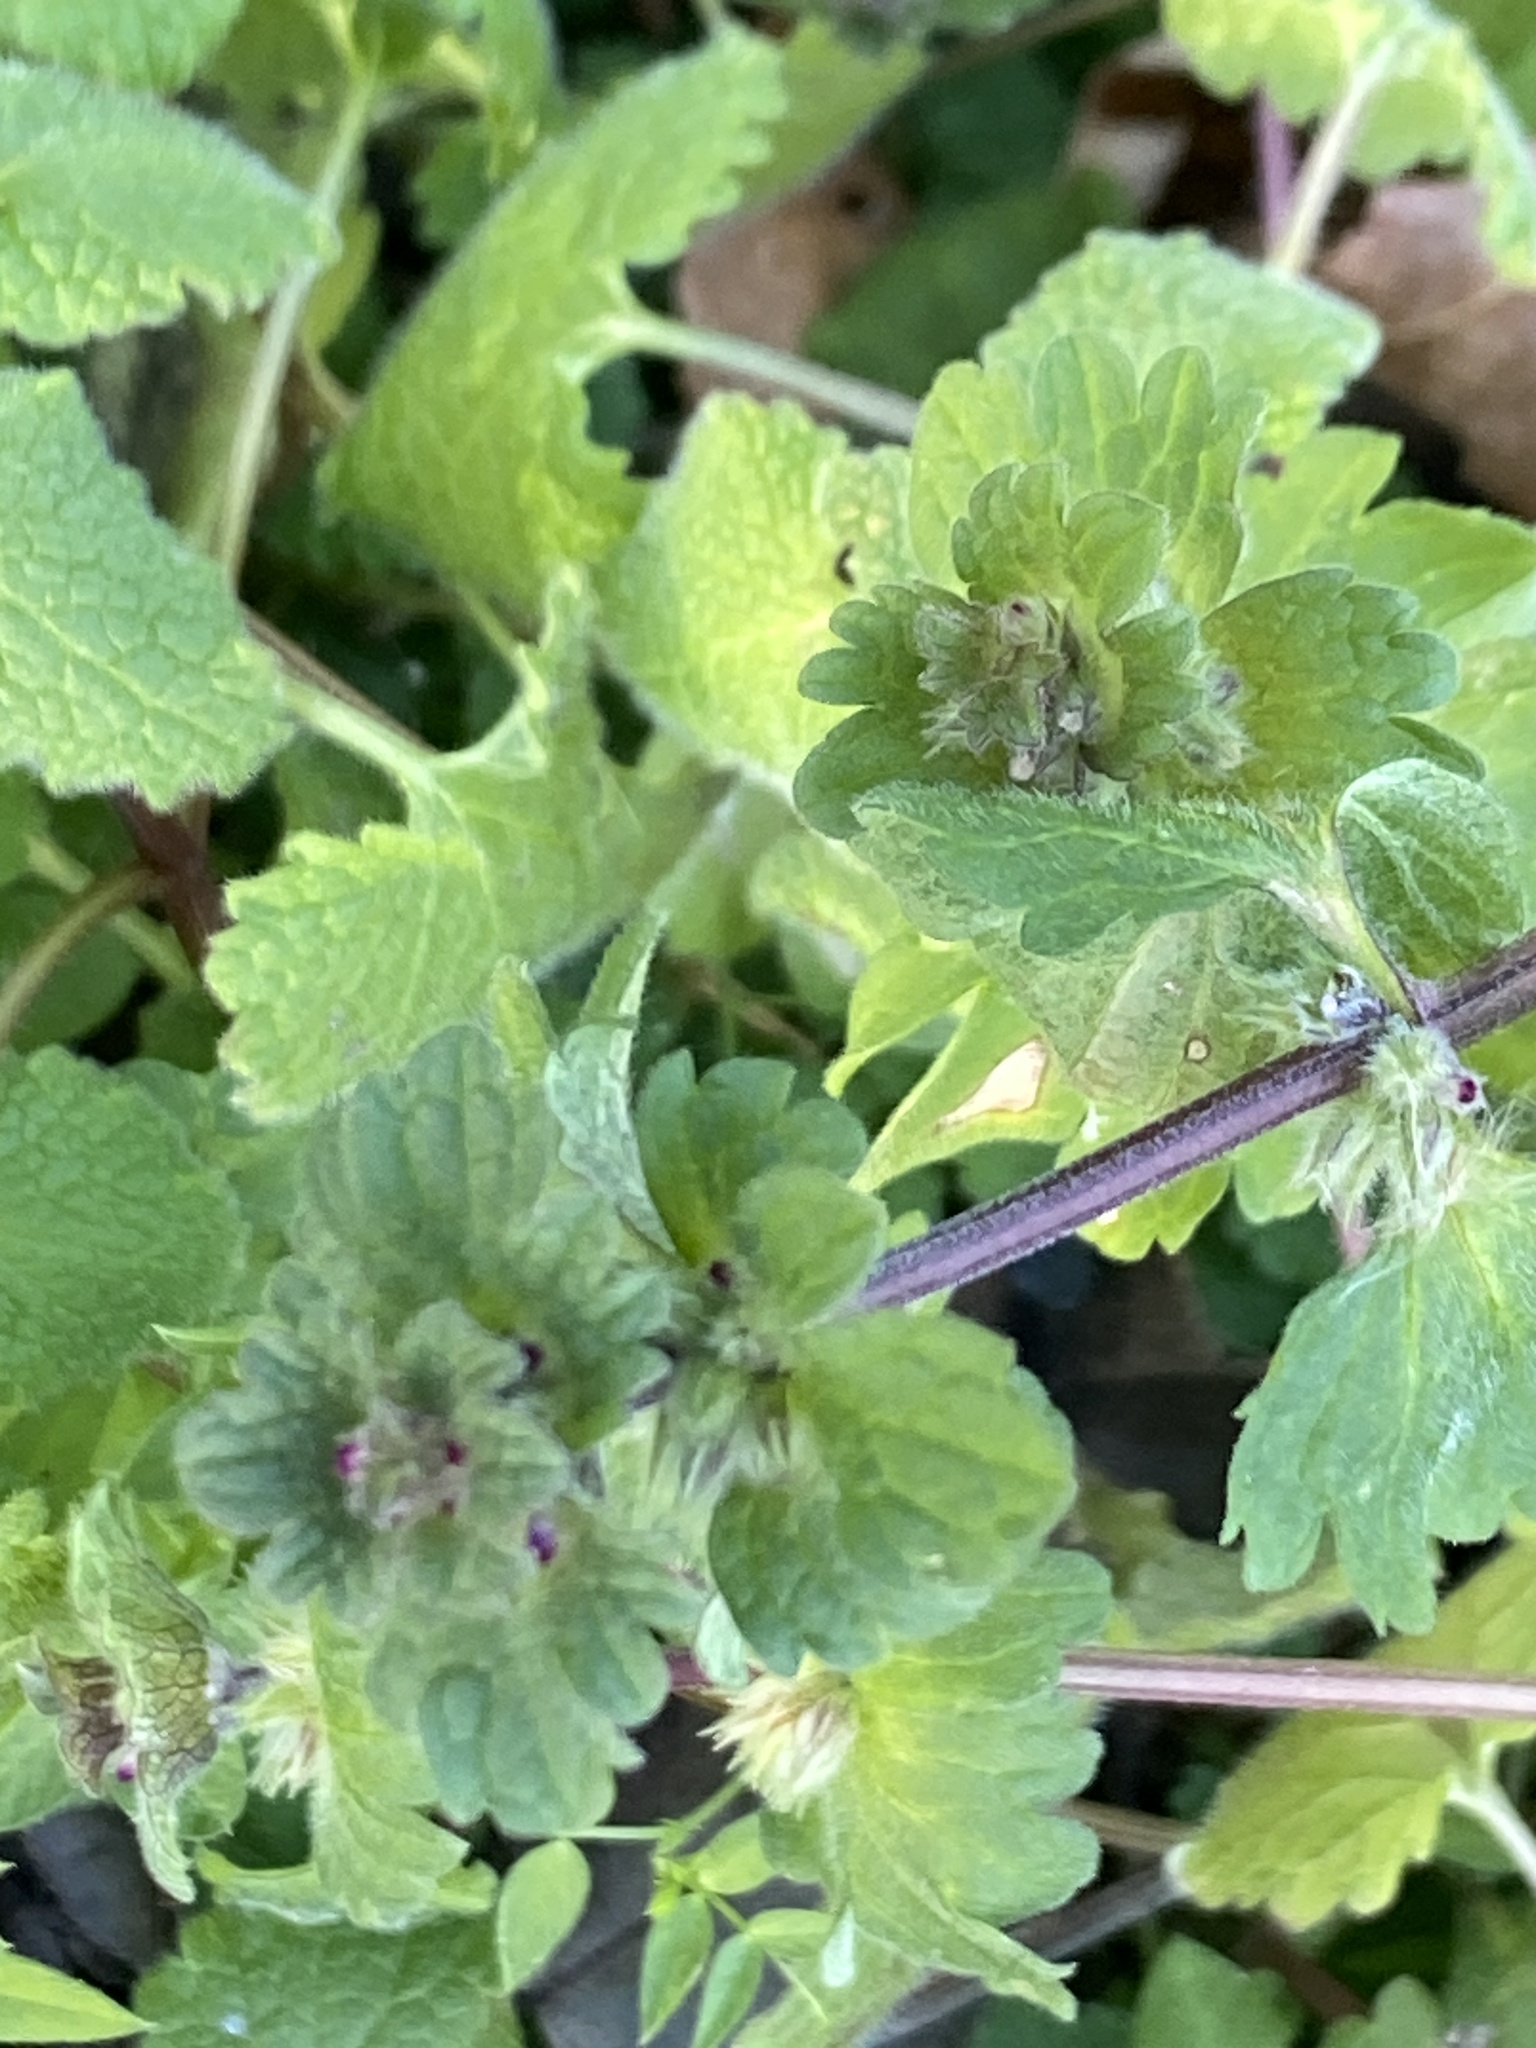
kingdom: Plantae
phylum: Tracheophyta
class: Magnoliopsida
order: Lamiales
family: Lamiaceae
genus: Lamium
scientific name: Lamium amplexicaule
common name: Henbit dead-nettle
